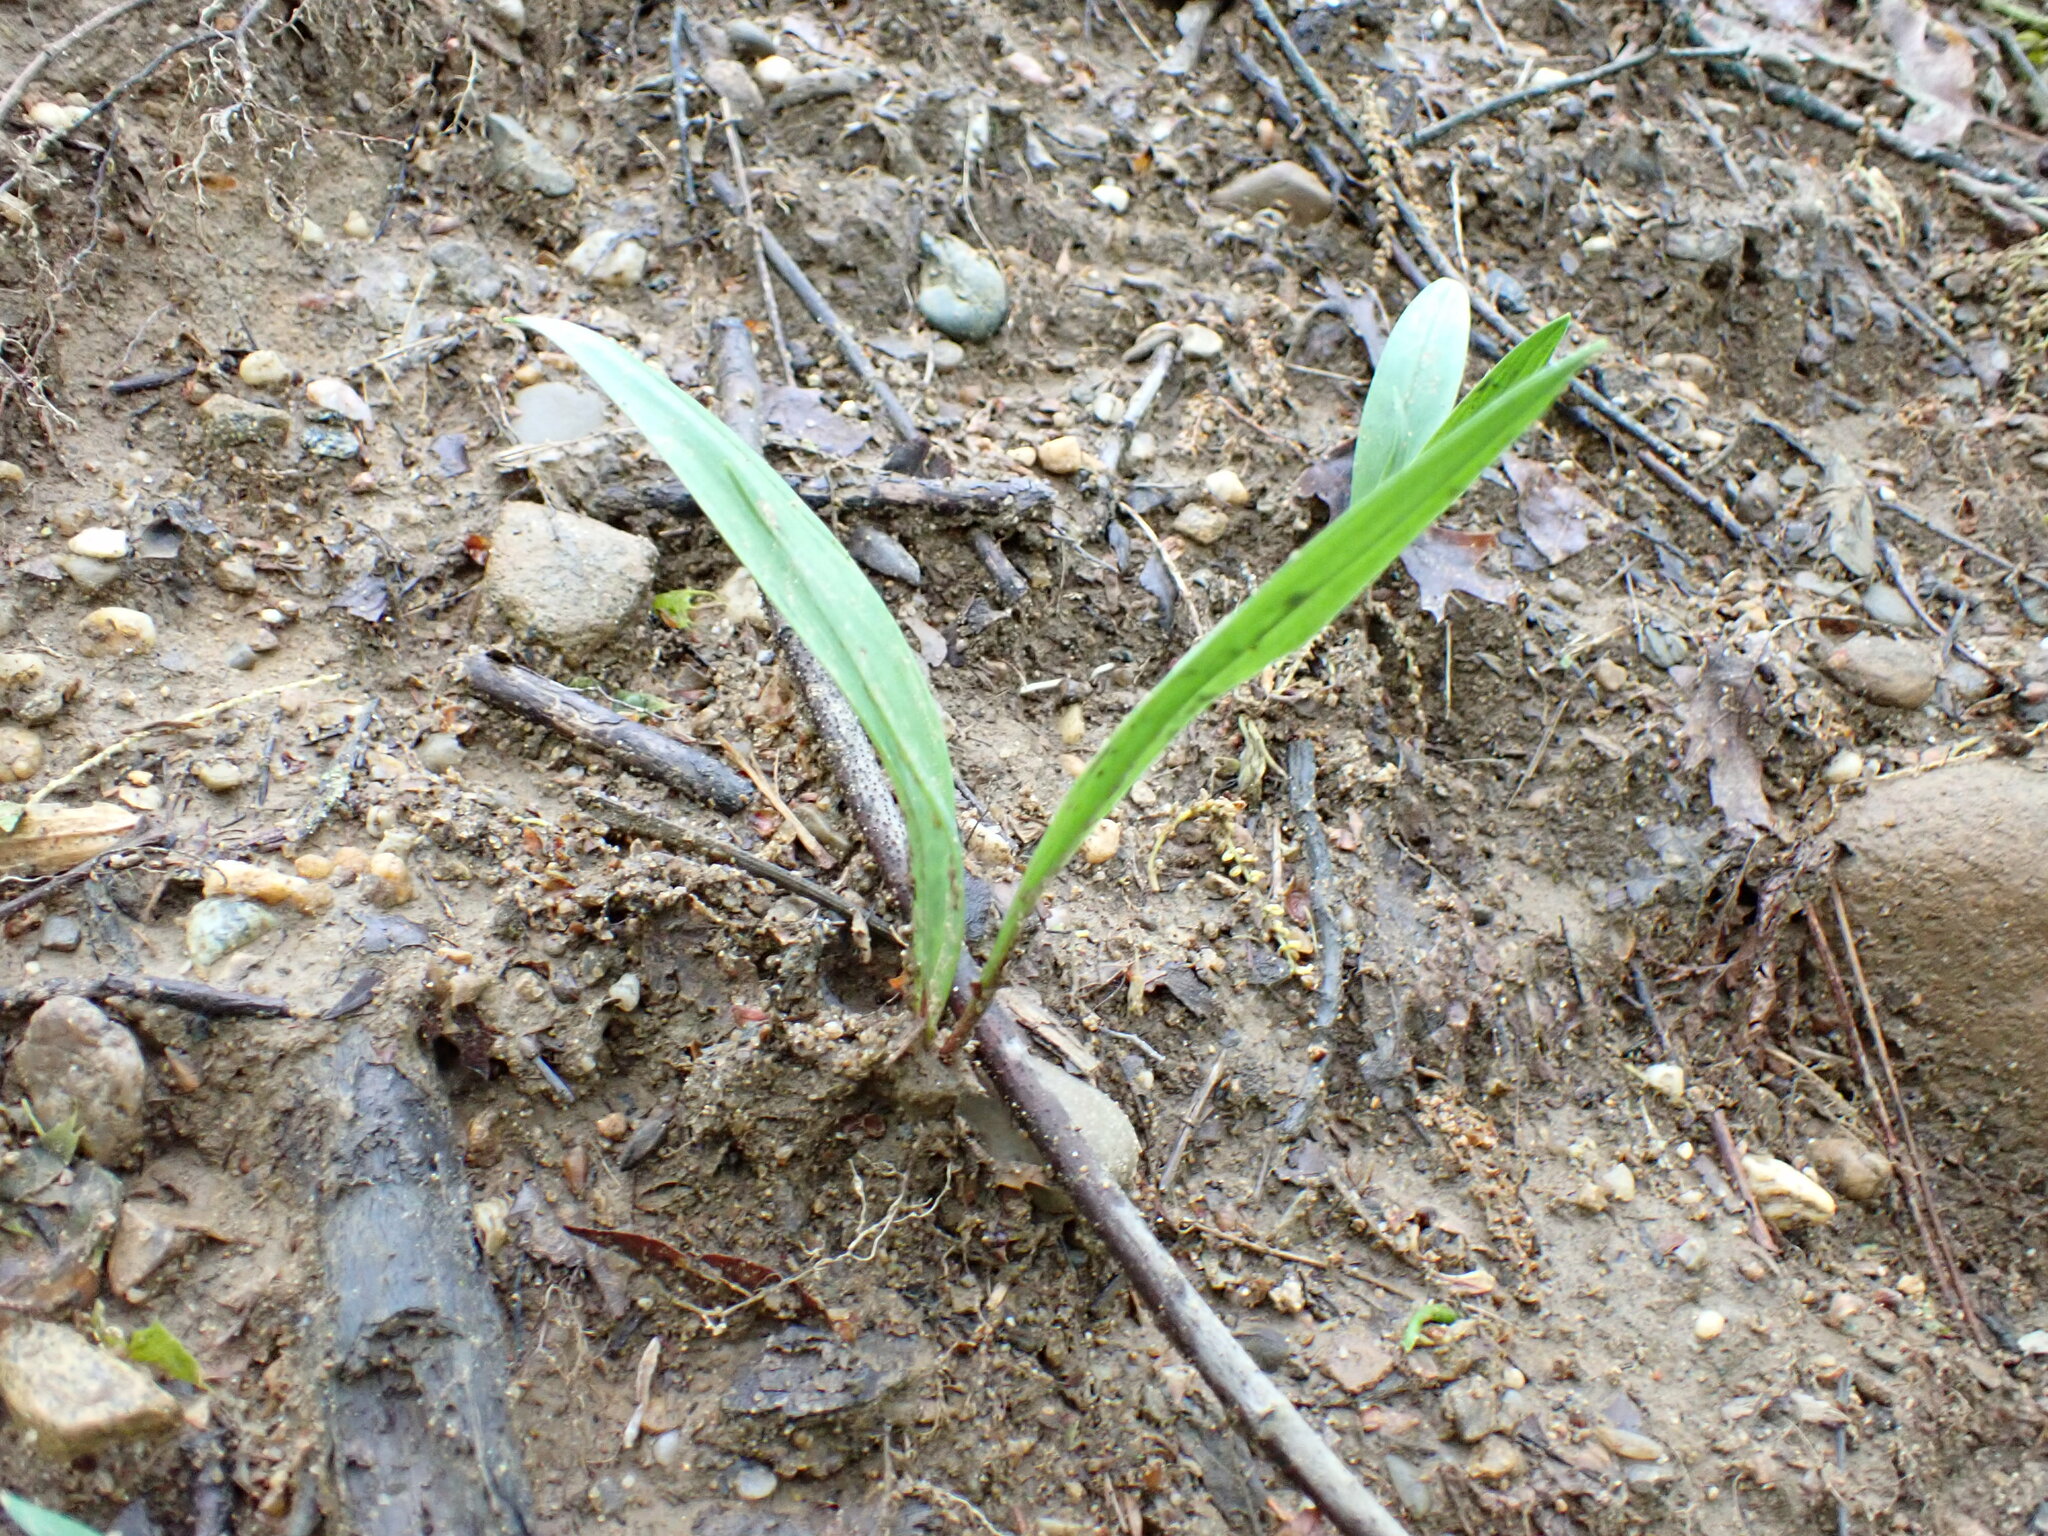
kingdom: Plantae
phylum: Tracheophyta
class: Liliopsida
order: Asparagales
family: Amaryllidaceae
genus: Allium
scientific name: Allium tricoccum
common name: Ramp
